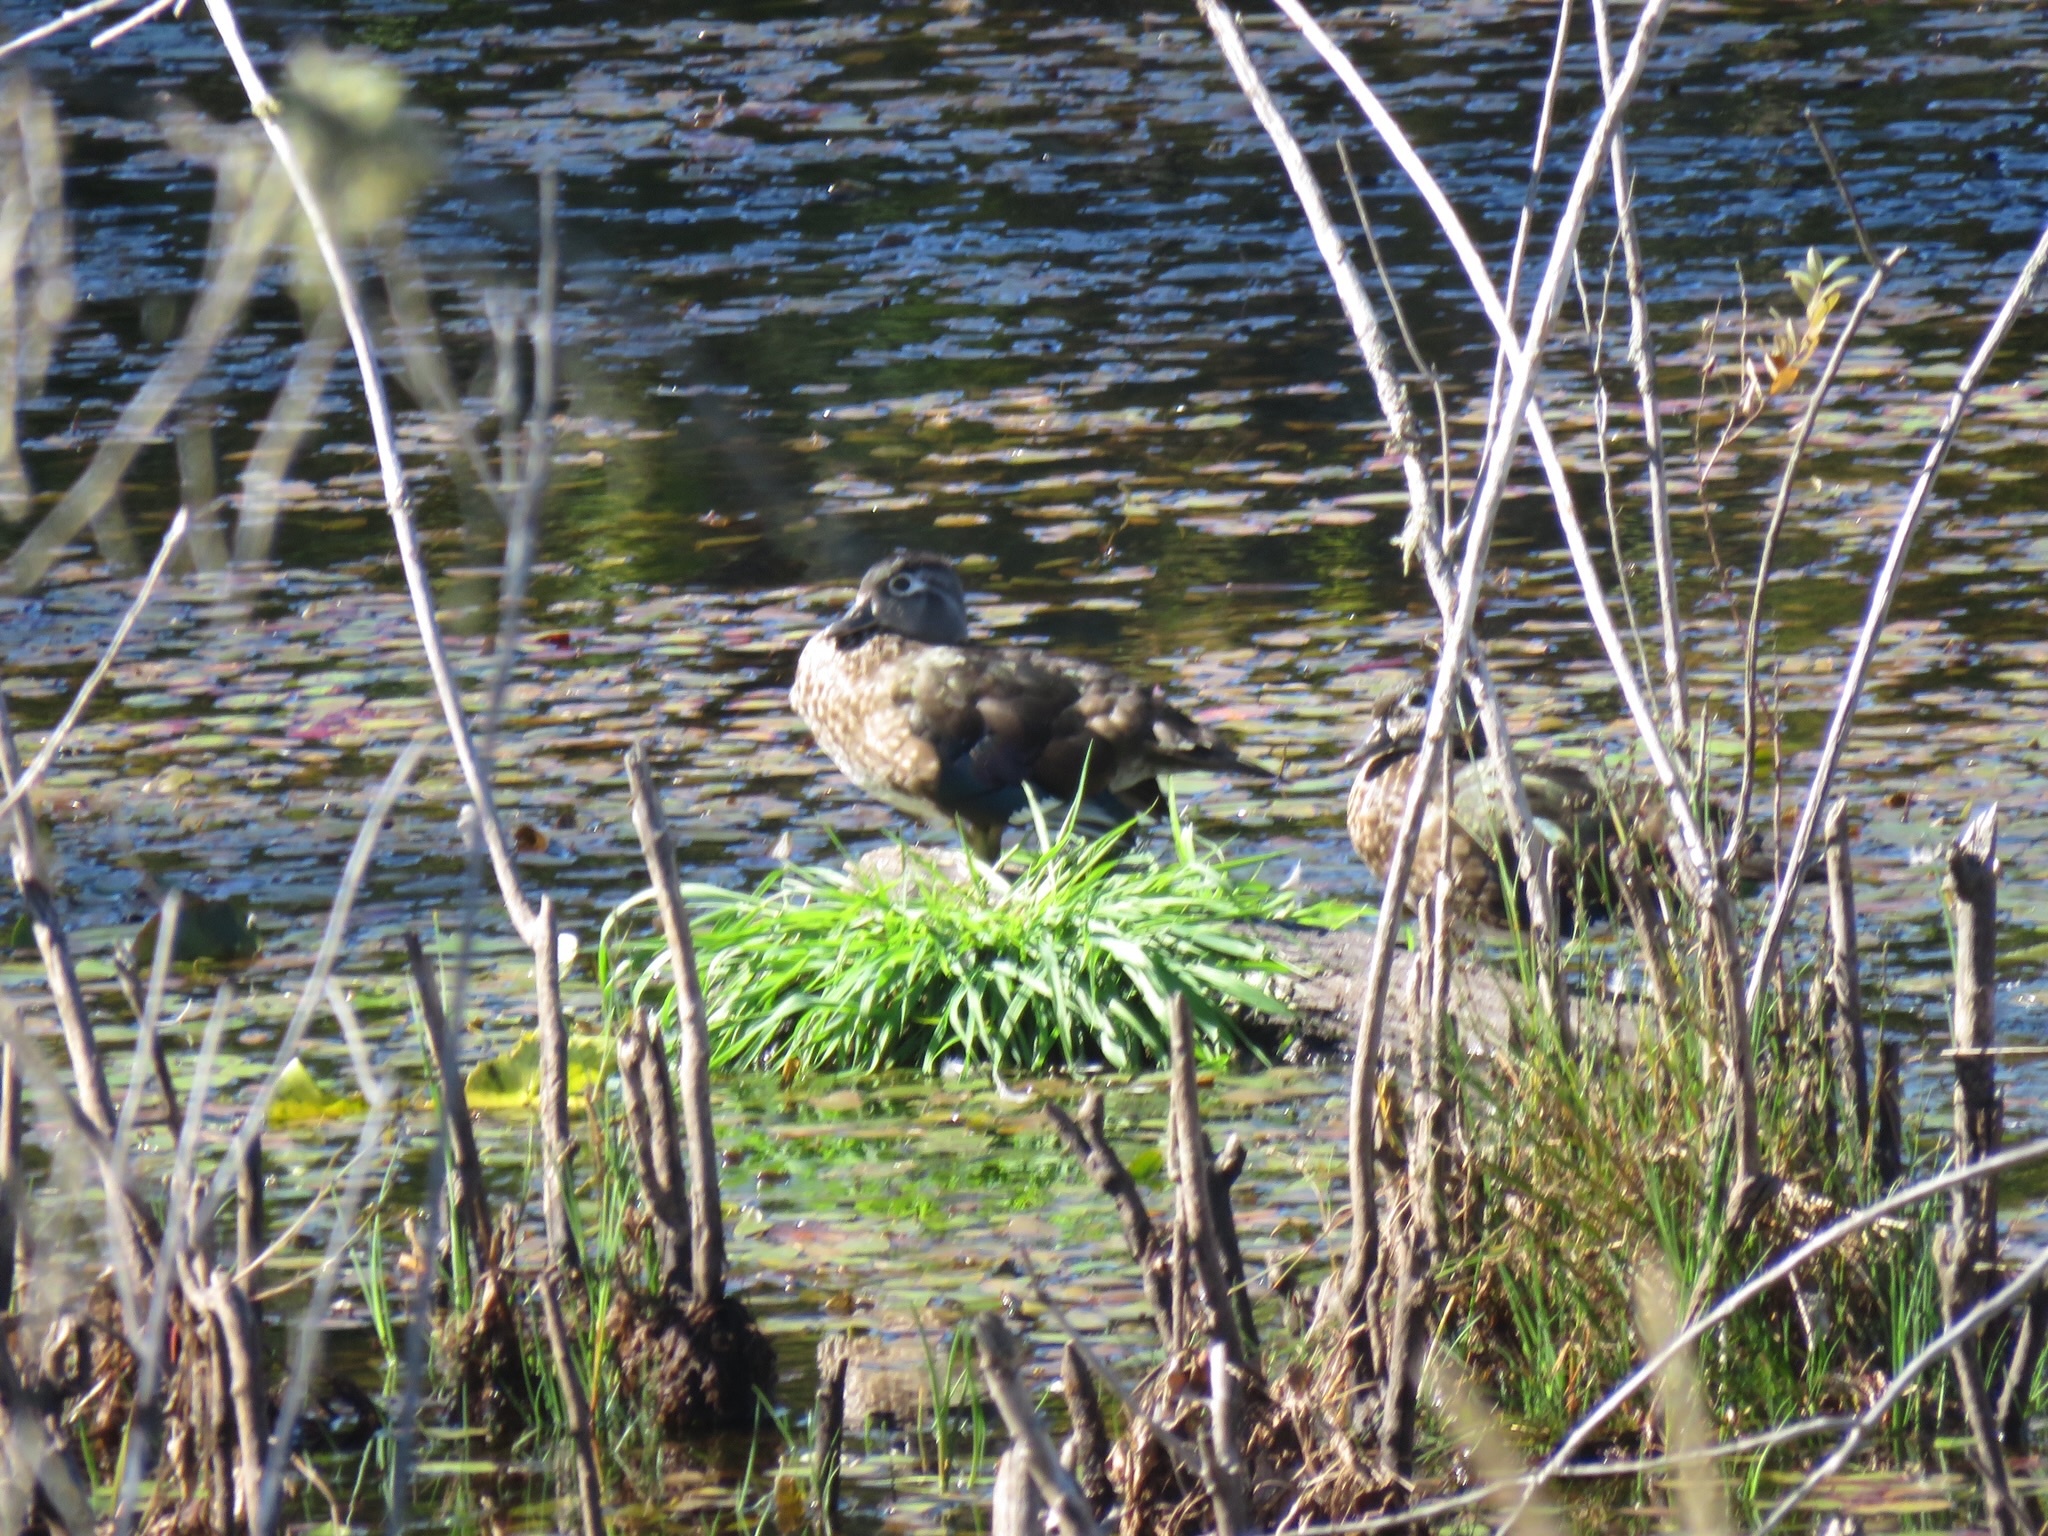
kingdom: Animalia
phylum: Chordata
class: Aves
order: Anseriformes
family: Anatidae
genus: Aix
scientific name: Aix sponsa
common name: Wood duck
